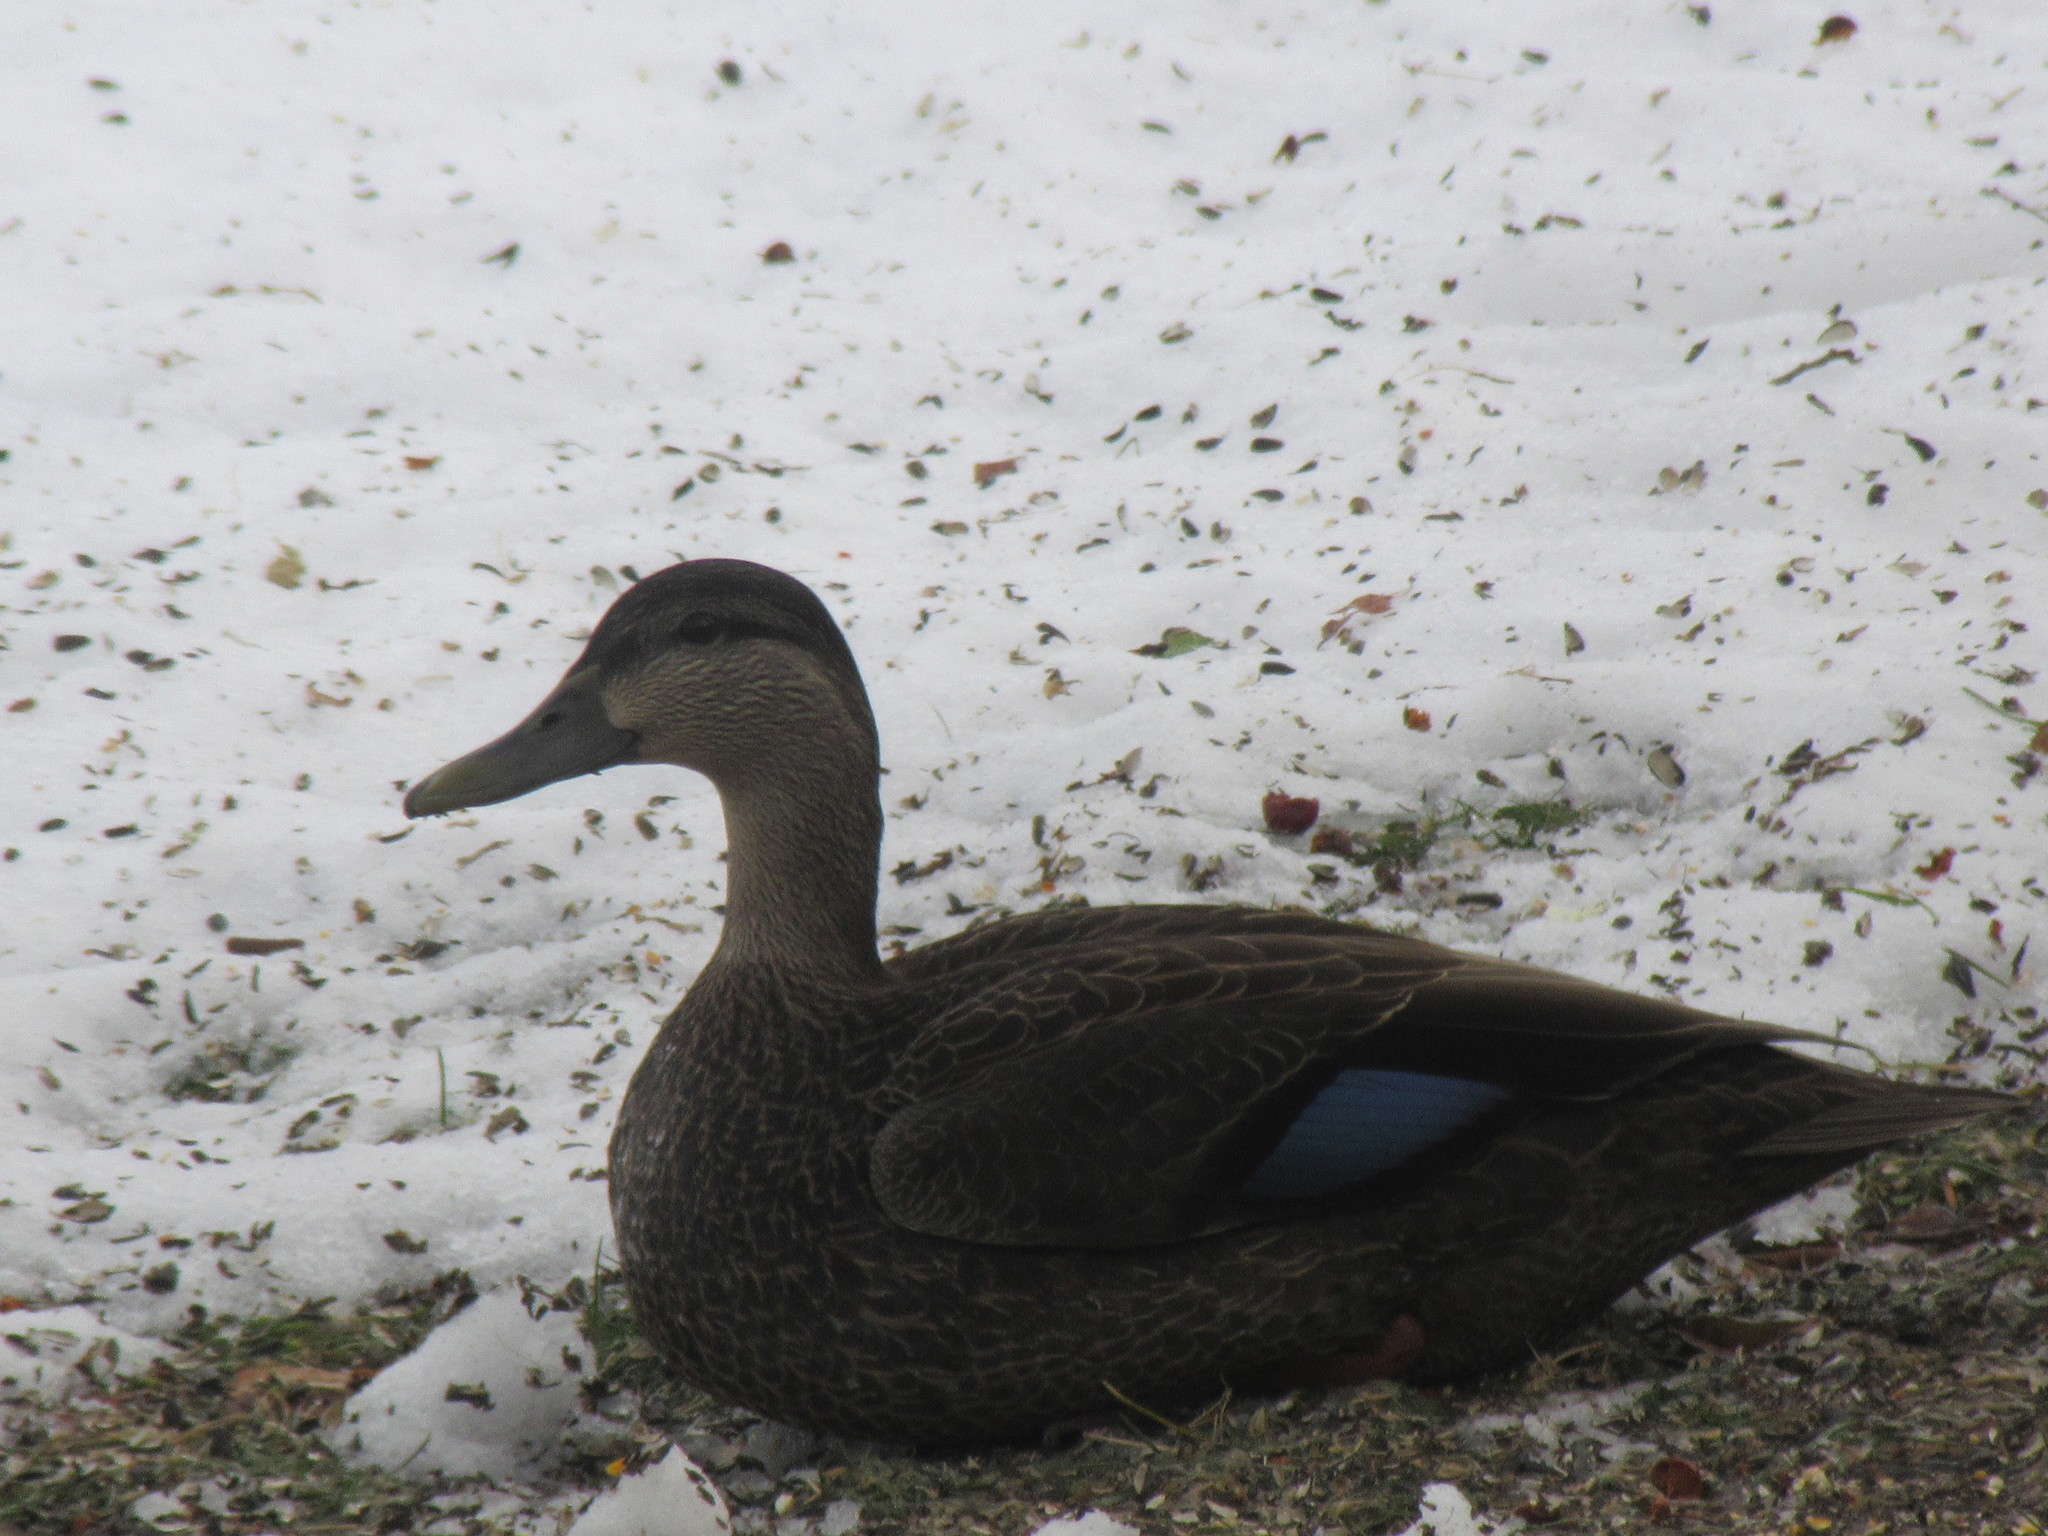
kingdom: Animalia
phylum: Chordata
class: Aves
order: Anseriformes
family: Anatidae
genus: Anas
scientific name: Anas rubripes
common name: American black duck
